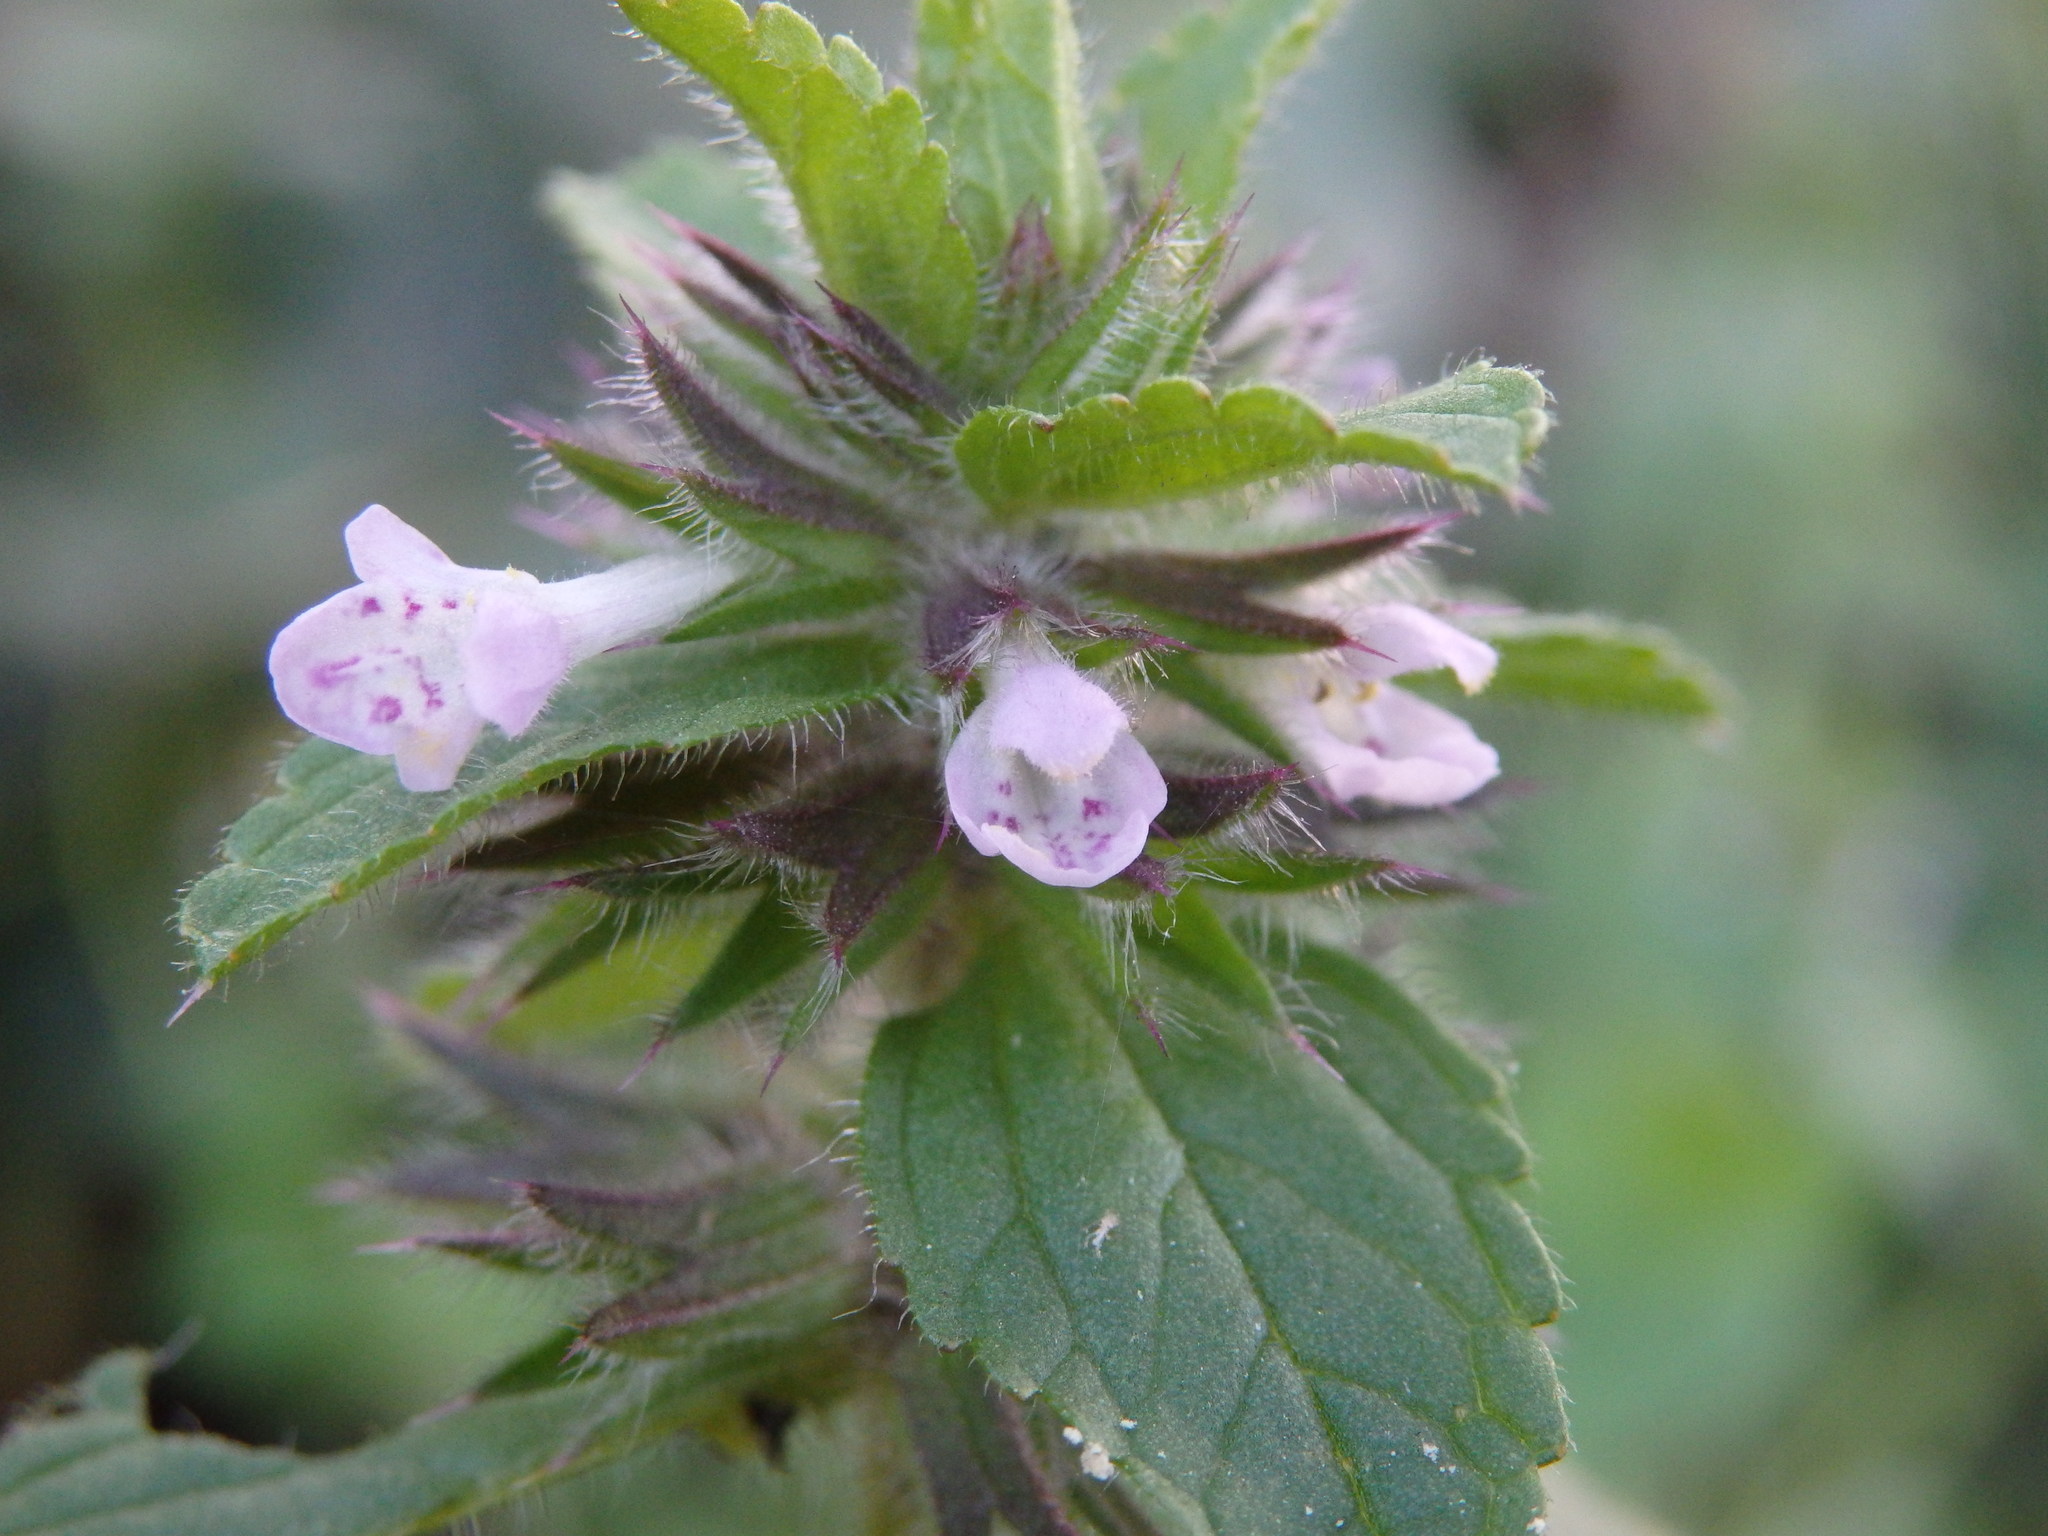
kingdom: Plantae
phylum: Tracheophyta
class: Magnoliopsida
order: Lamiales
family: Lamiaceae
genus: Stachys
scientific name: Stachys arvensis
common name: Field woundwort
